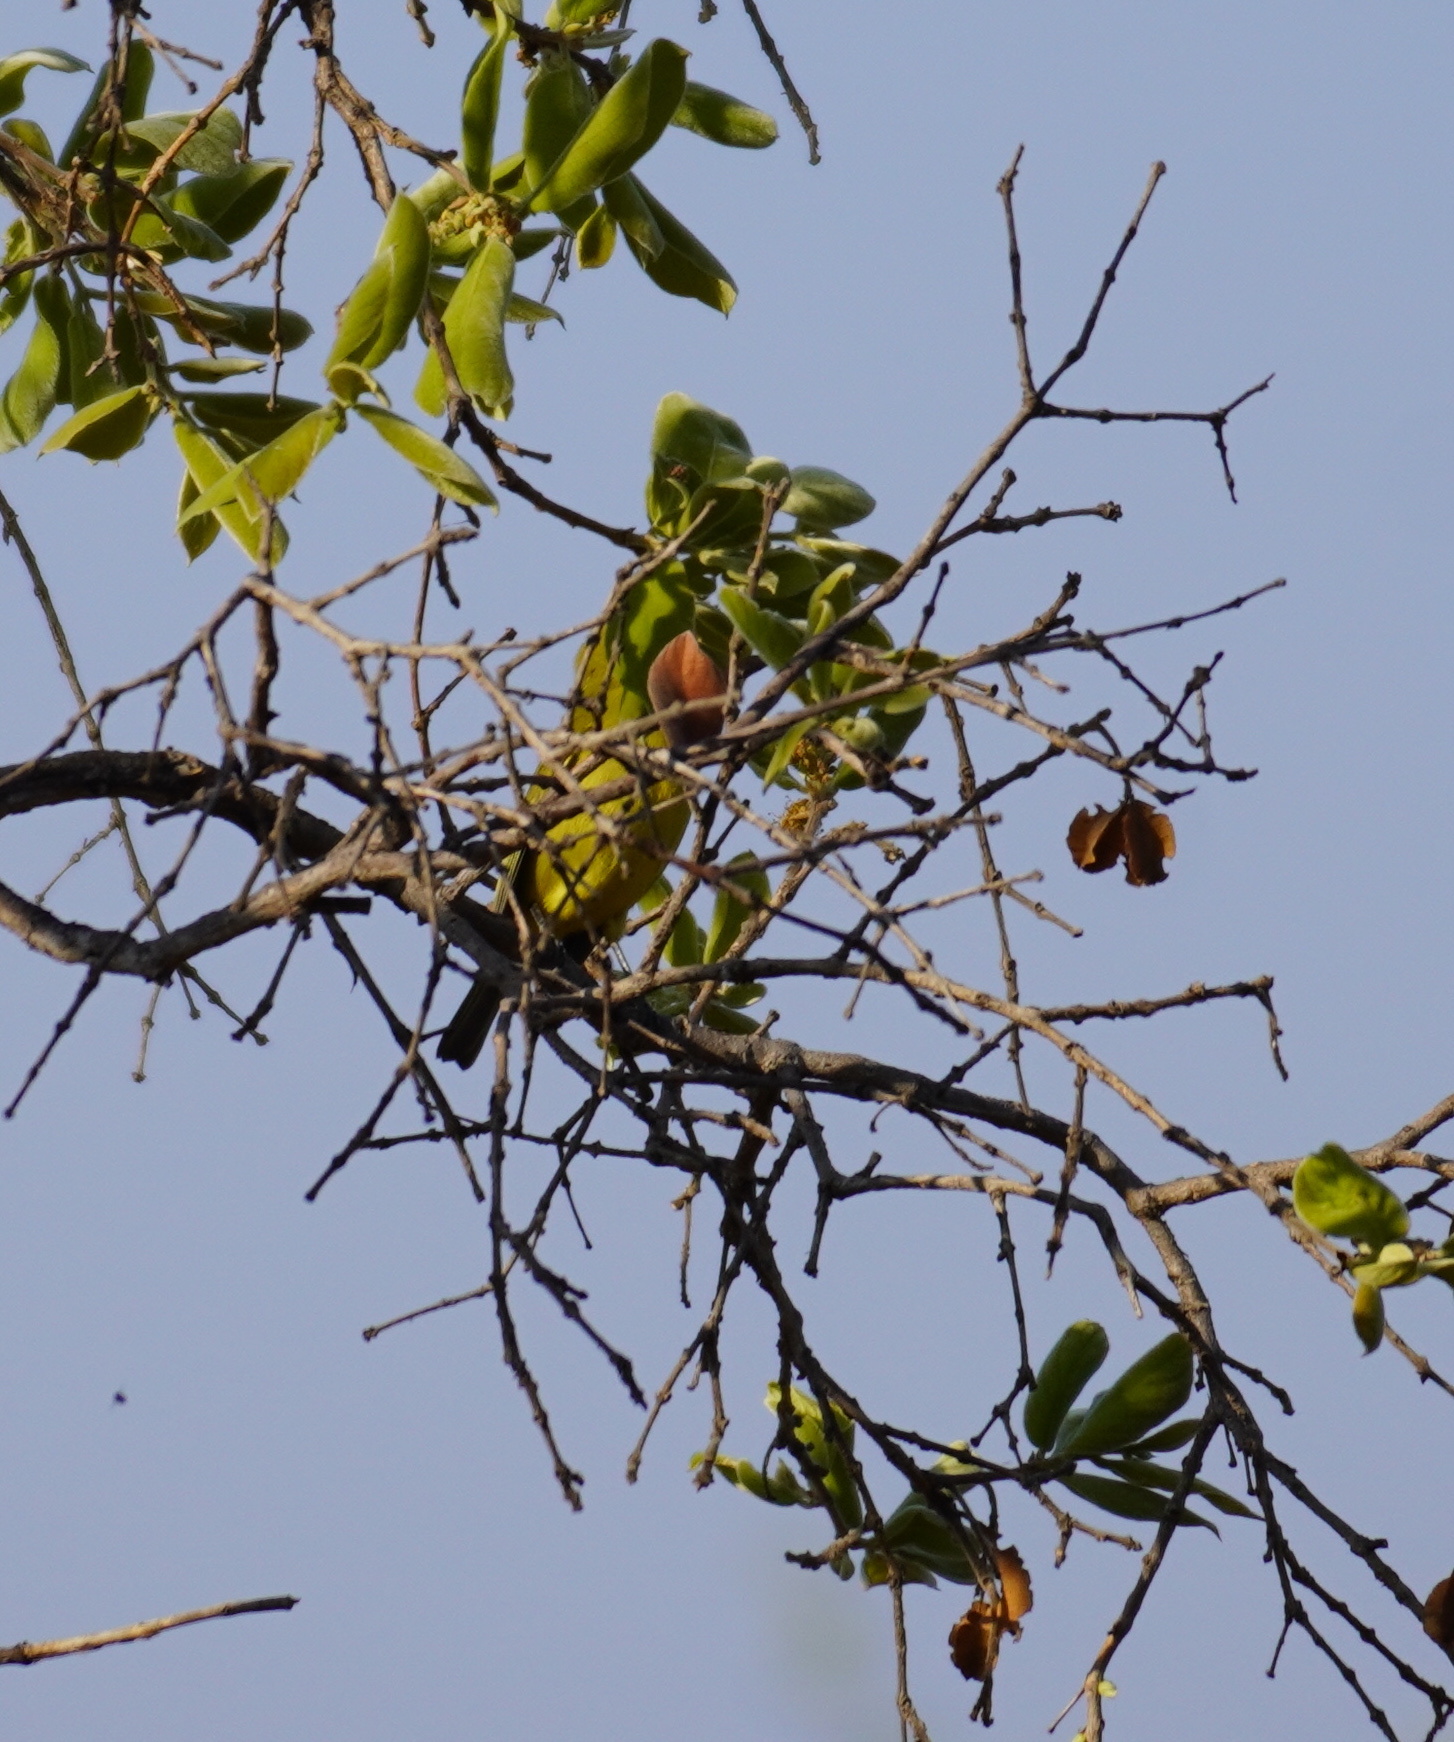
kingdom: Animalia
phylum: Chordata
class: Aves
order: Passeriformes
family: Zosteropidae
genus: Zosterops
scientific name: Zosterops virens
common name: Cape white-eye
